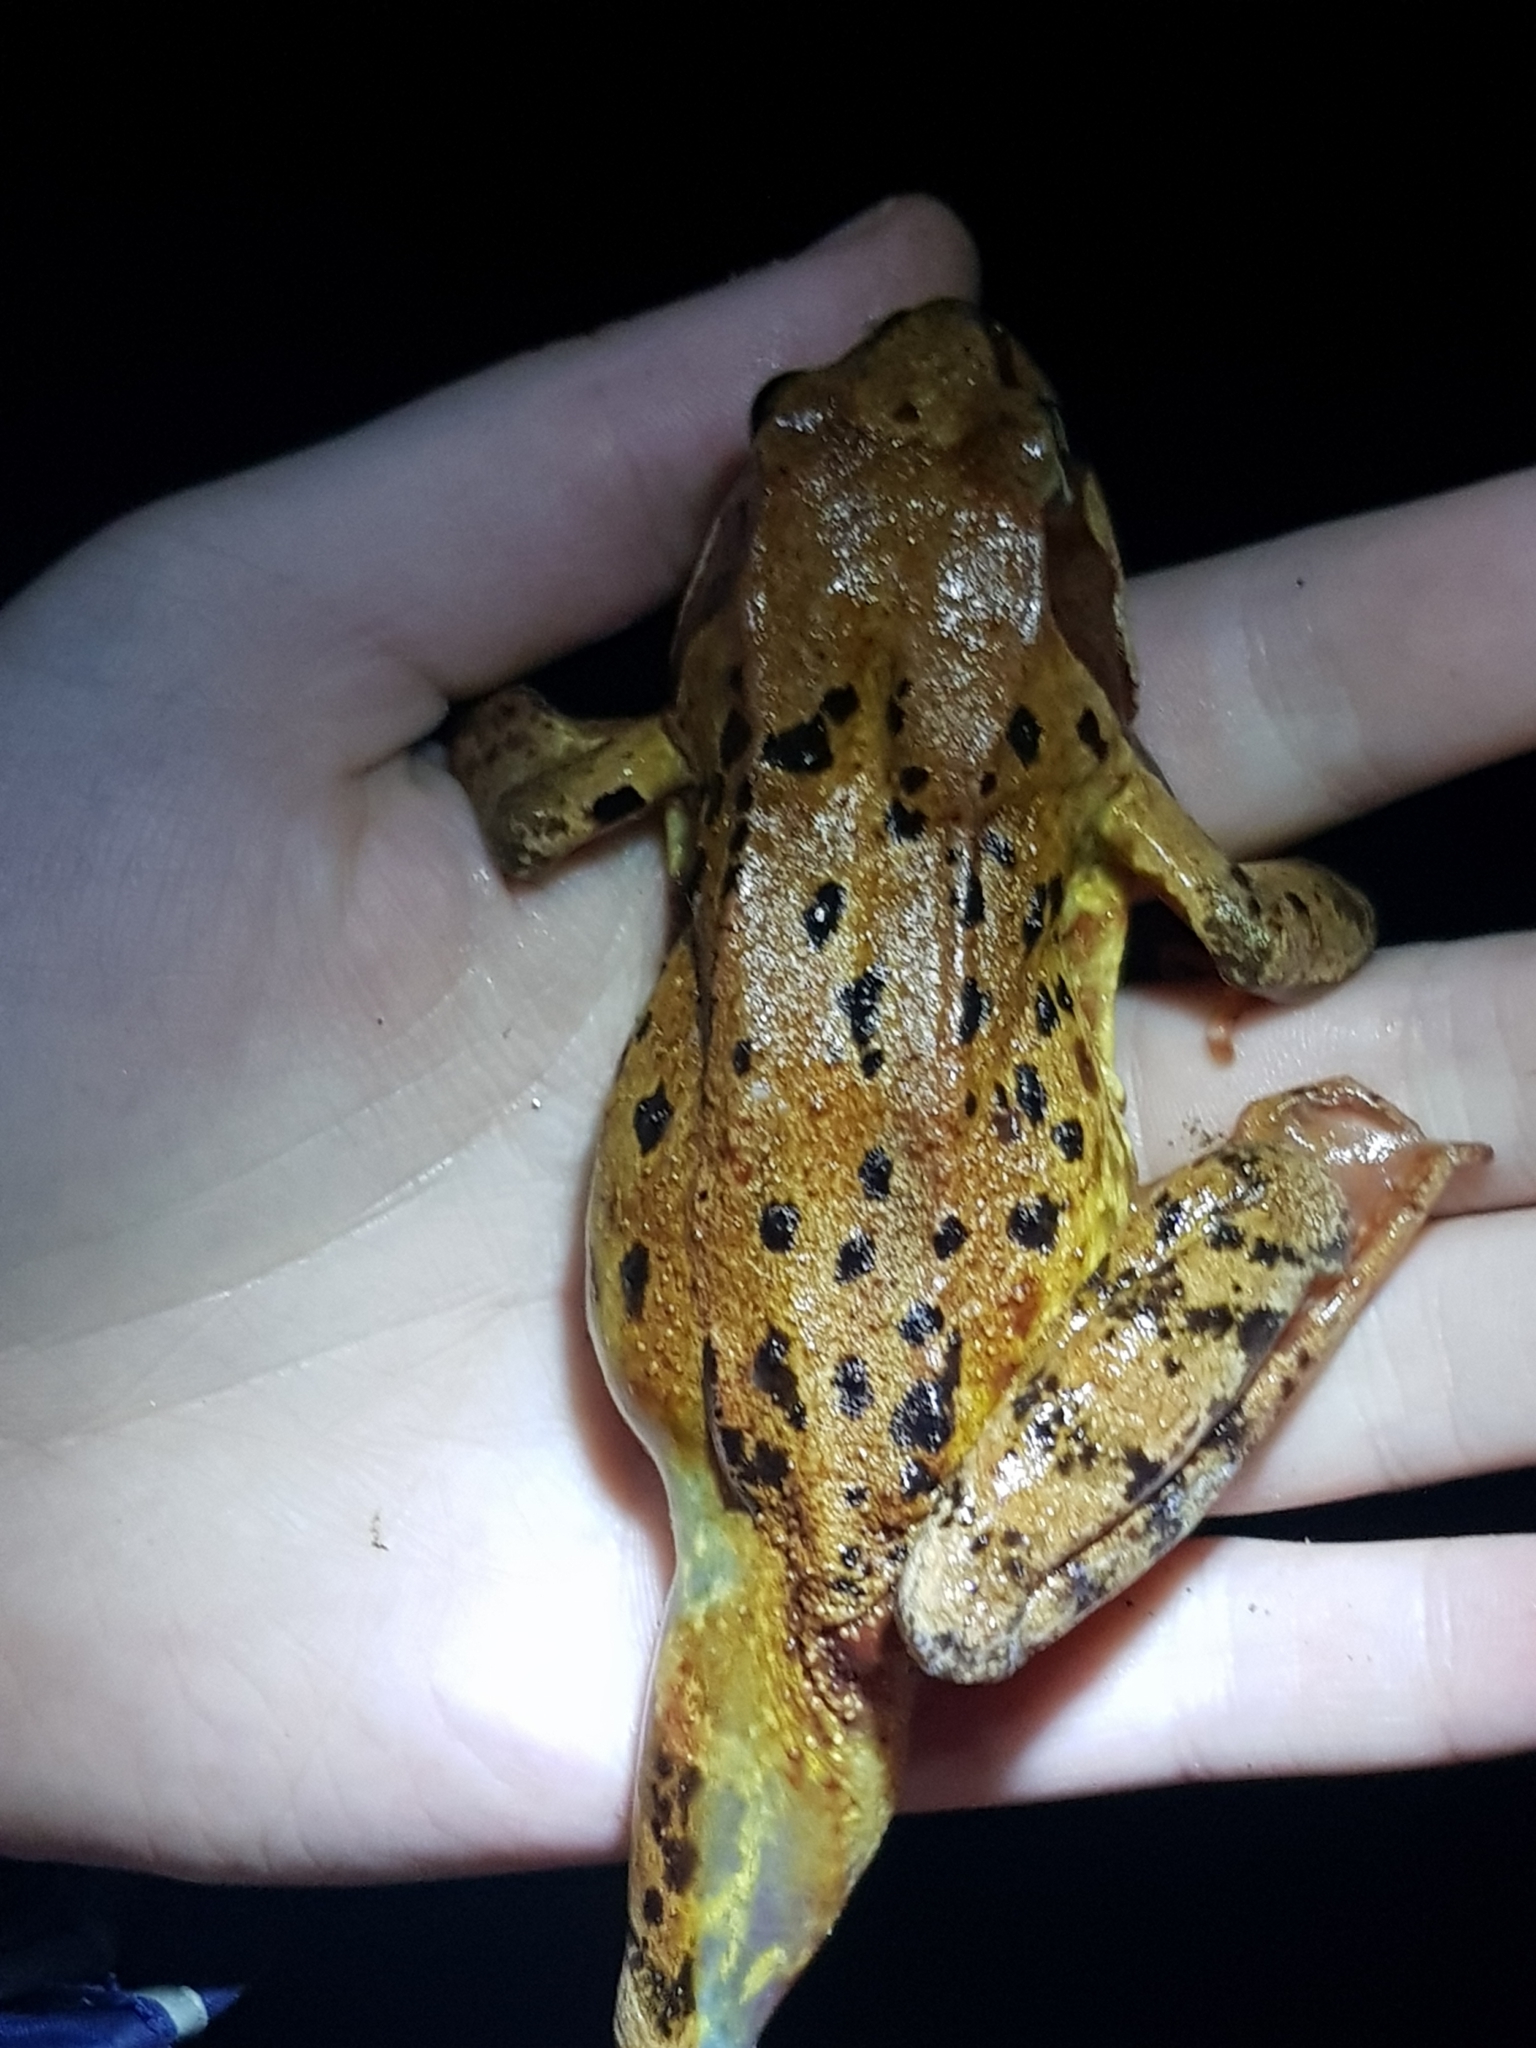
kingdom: Animalia
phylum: Chordata
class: Amphibia
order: Anura
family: Ranidae
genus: Rana
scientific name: Rana temporaria
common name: Common frog
